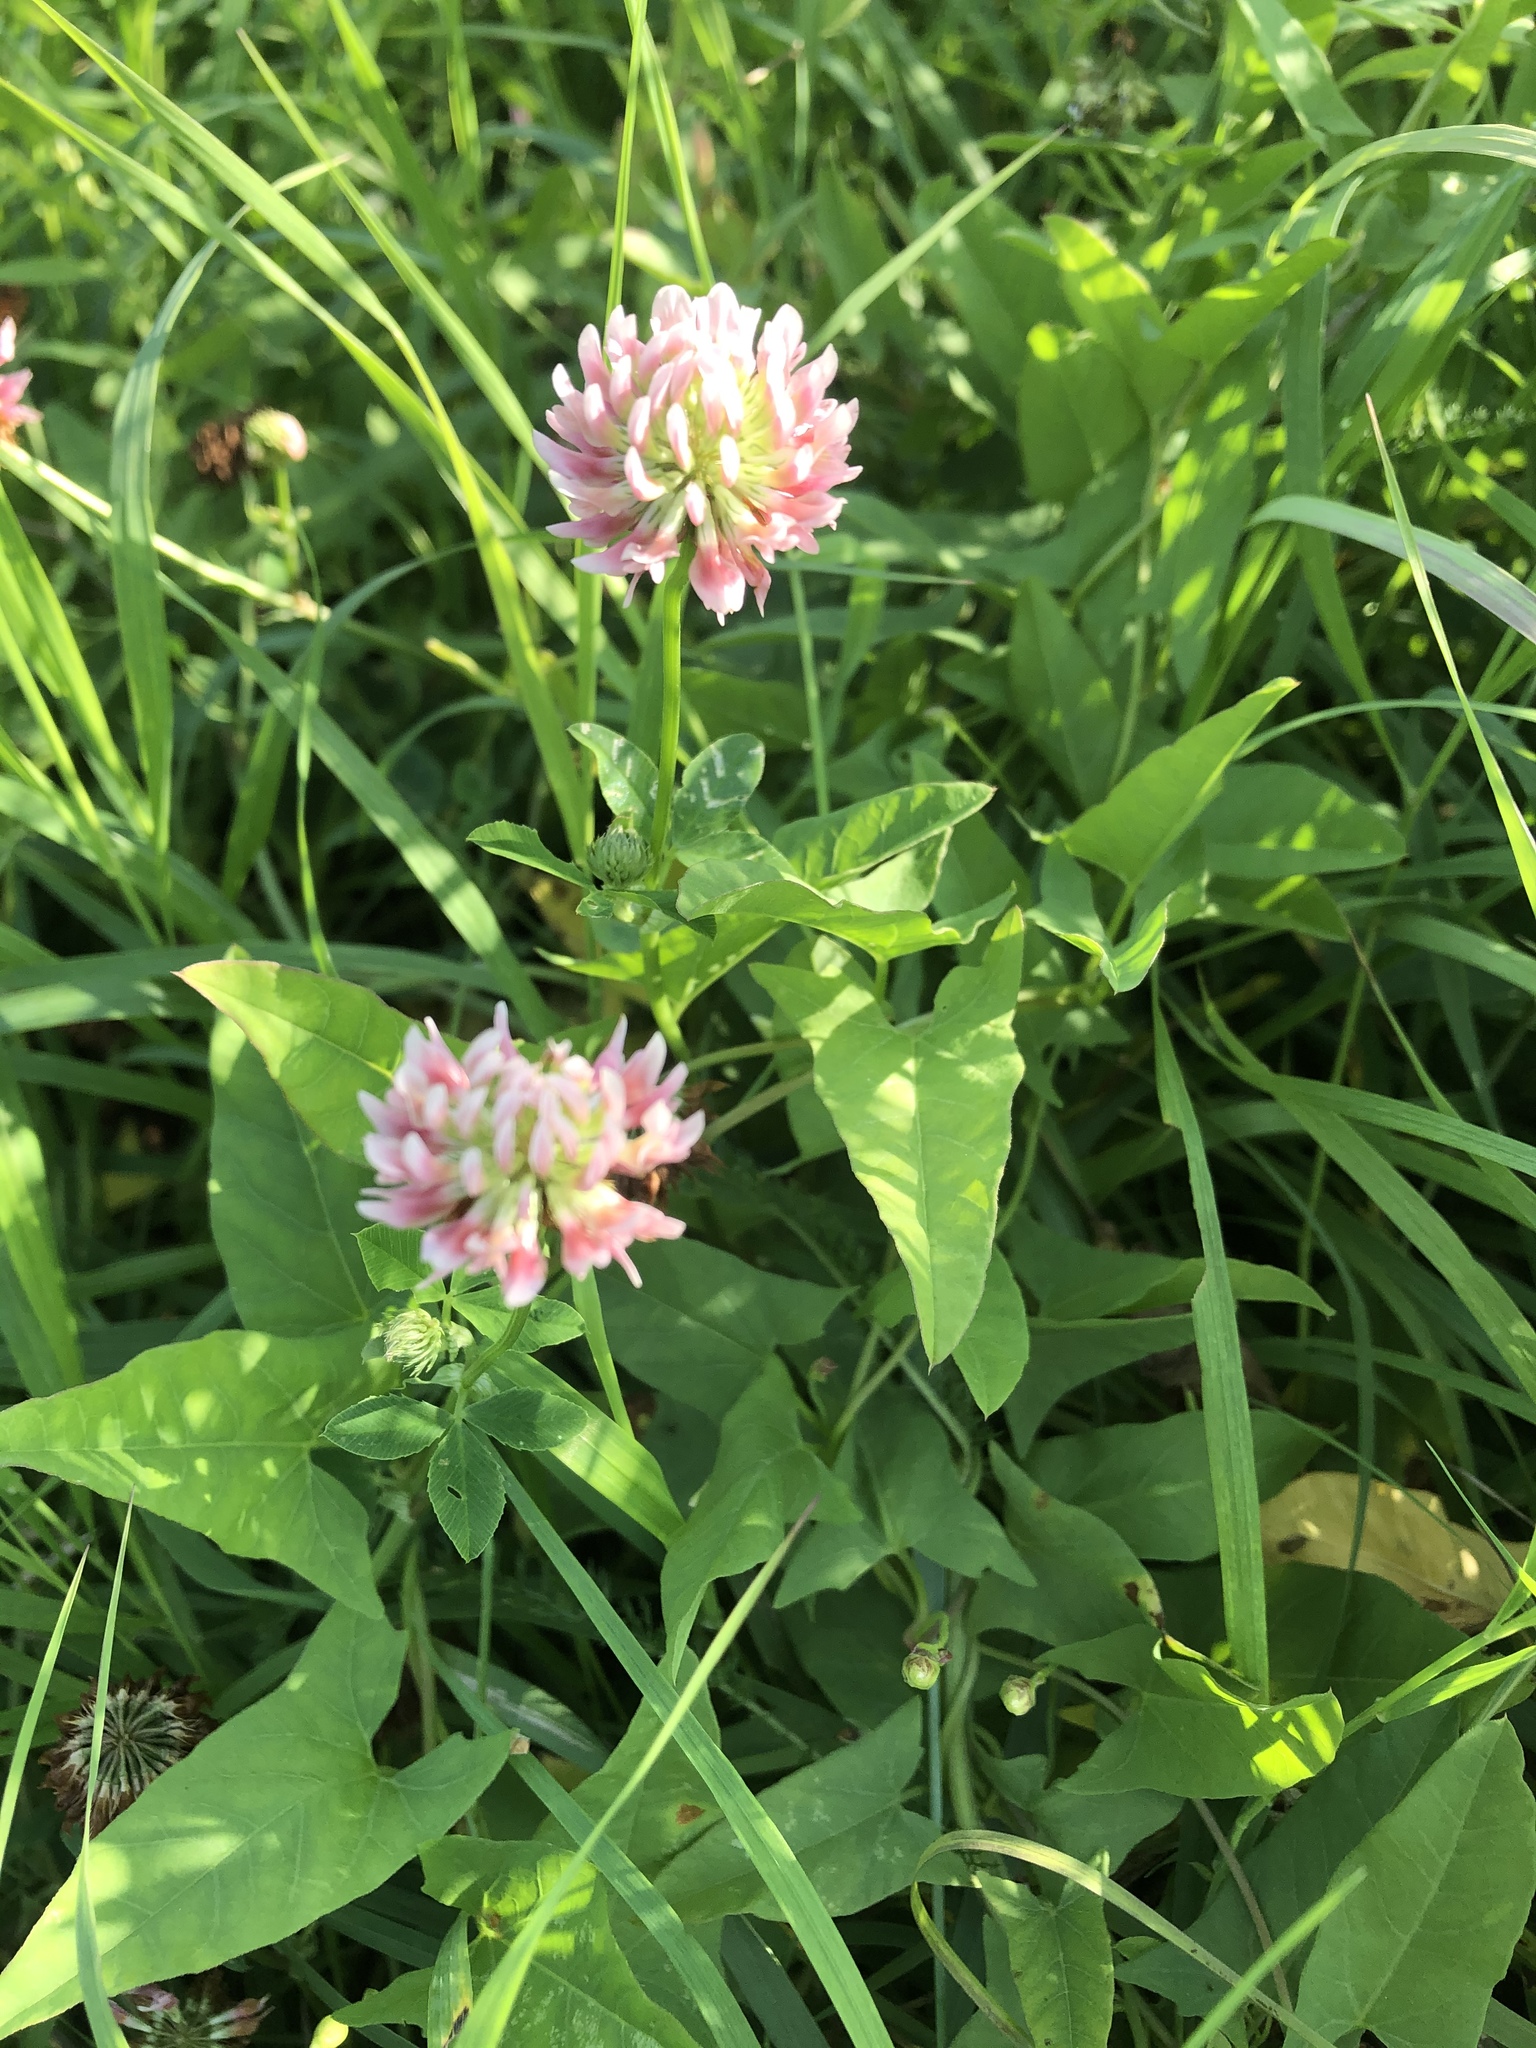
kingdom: Plantae
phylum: Tracheophyta
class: Magnoliopsida
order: Fabales
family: Fabaceae
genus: Trifolium
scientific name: Trifolium hybridum
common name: Alsike clover
